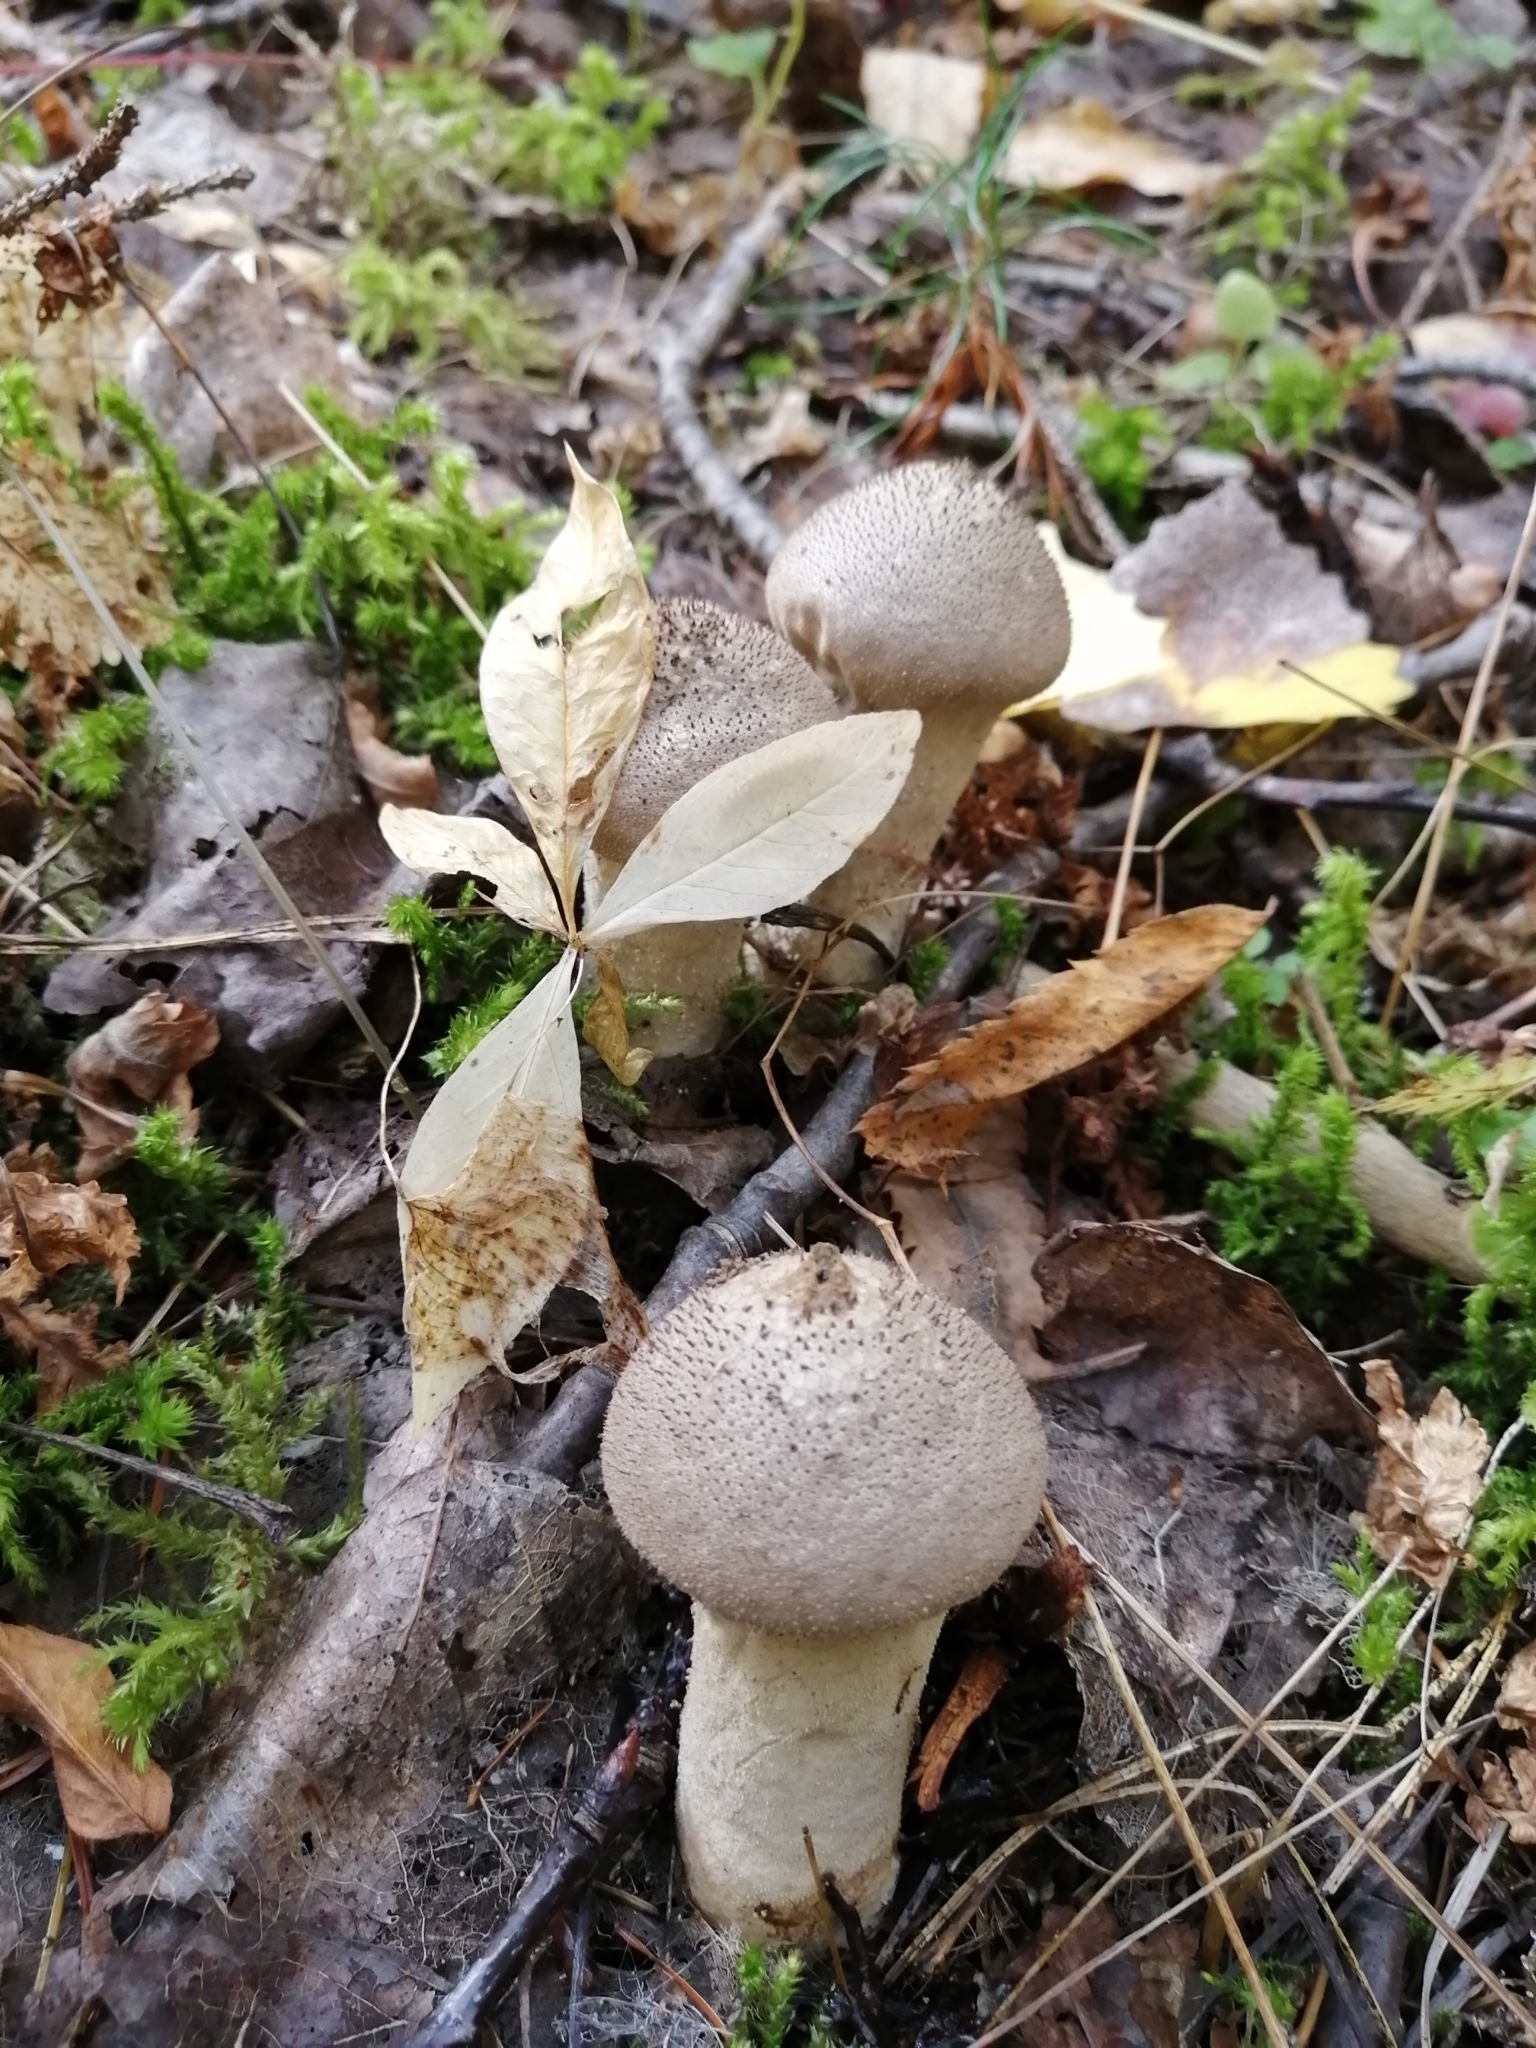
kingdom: Fungi
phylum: Basidiomycota
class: Agaricomycetes
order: Agaricales
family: Lycoperdaceae
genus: Lycoperdon
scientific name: Lycoperdon perlatum
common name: Common puffball
